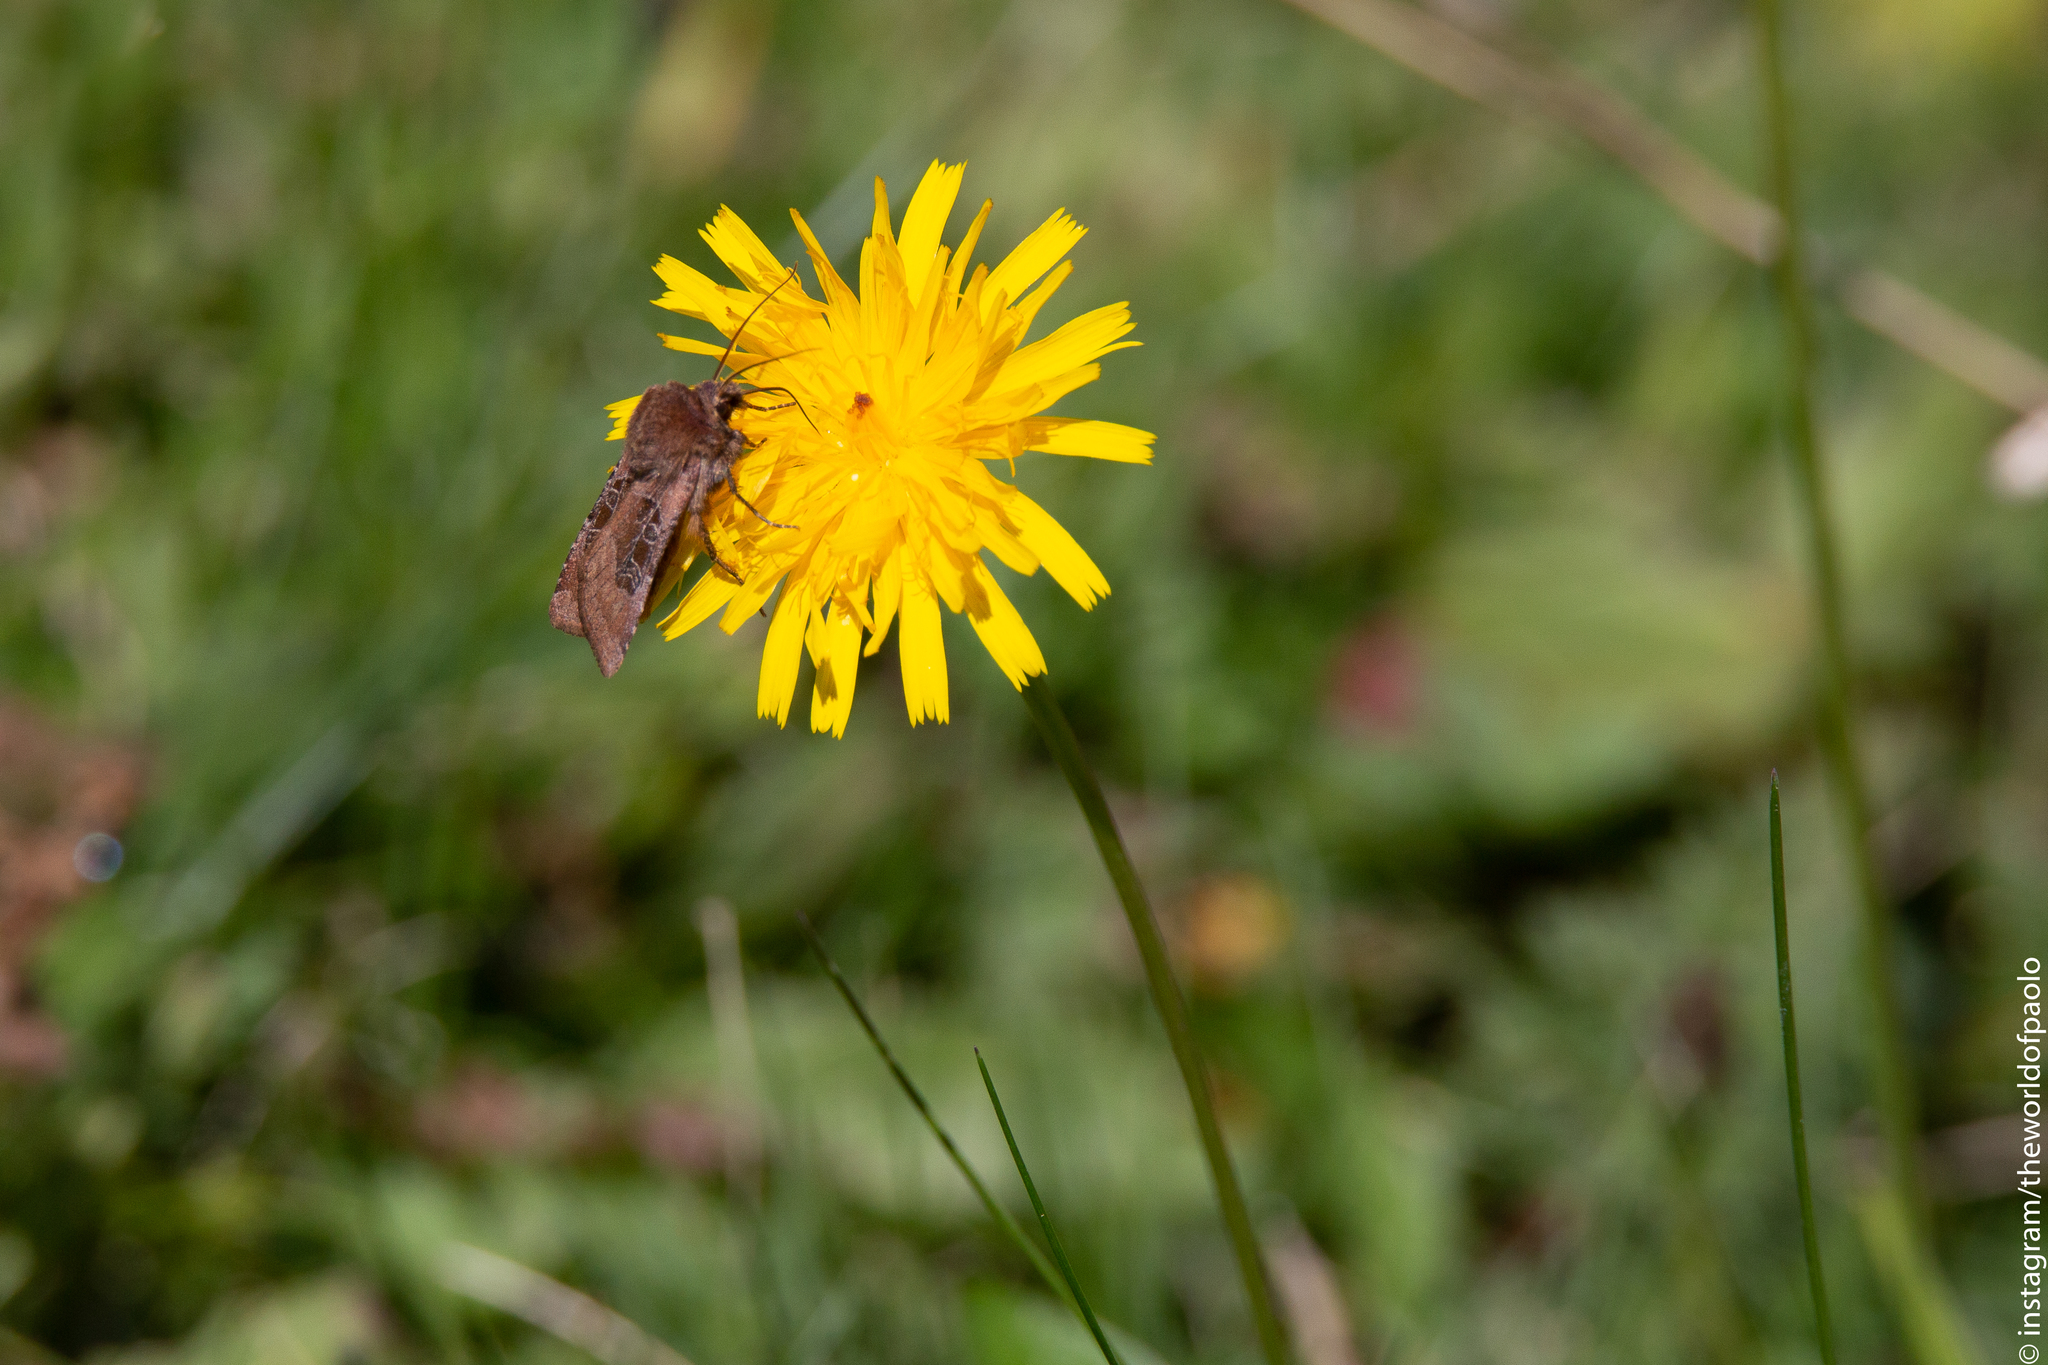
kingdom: Animalia
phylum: Arthropoda
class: Insecta
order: Lepidoptera
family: Noctuidae
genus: Chersotis
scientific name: Chersotis cuprea
